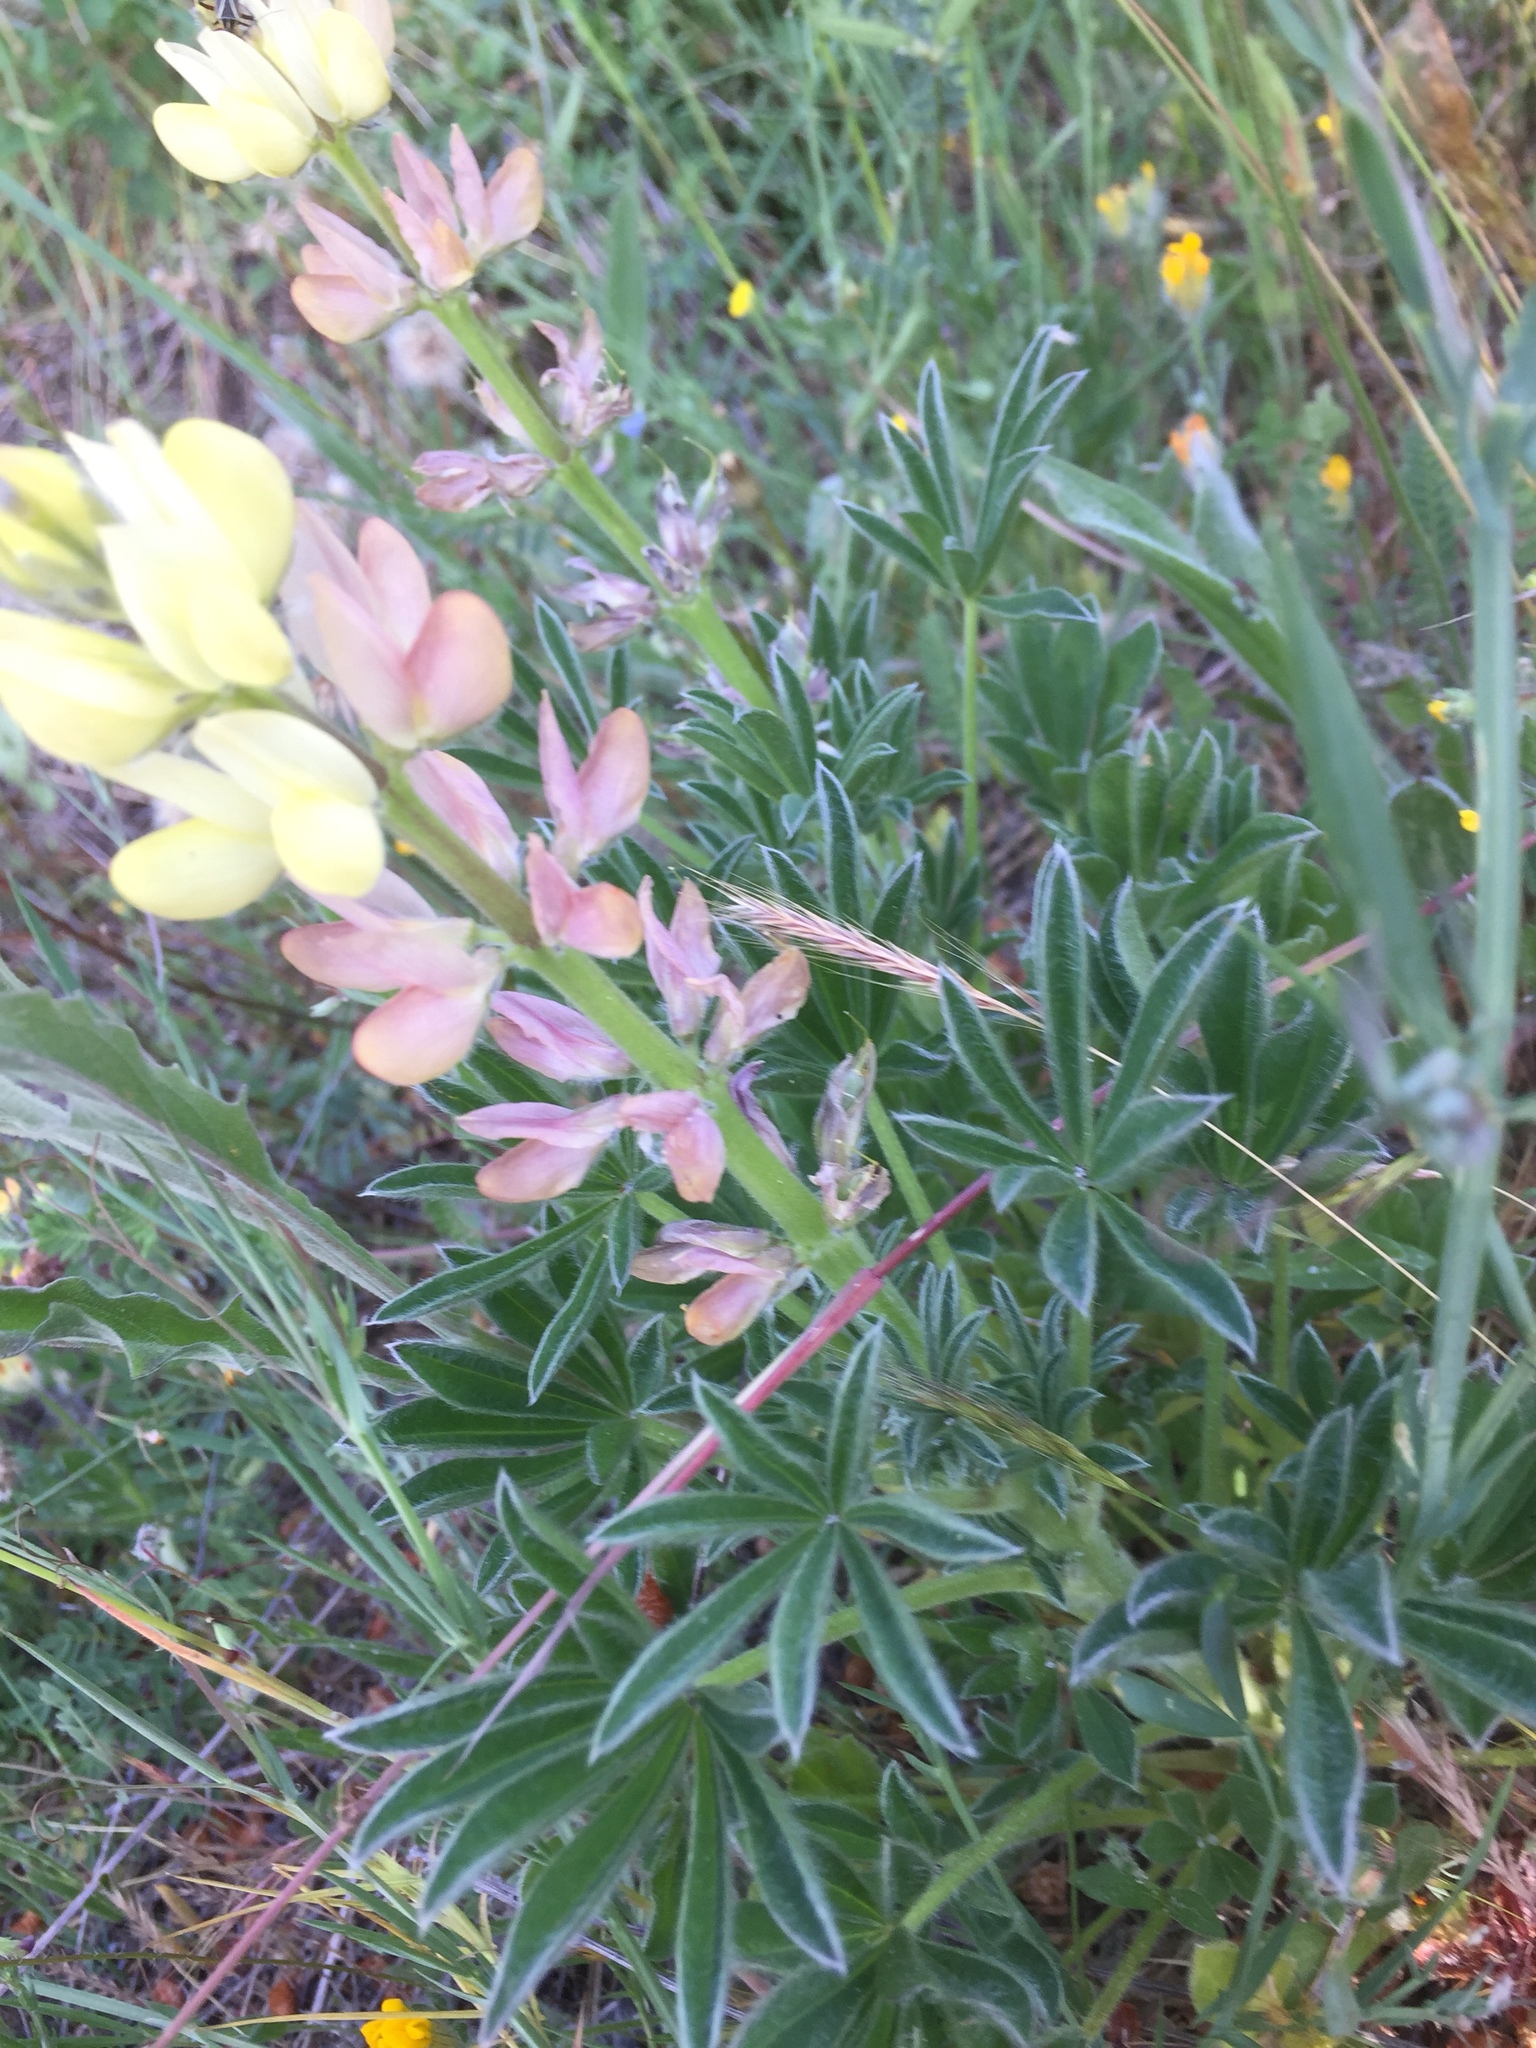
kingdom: Plantae
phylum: Tracheophyta
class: Magnoliopsida
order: Fabales
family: Fabaceae
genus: Lupinus
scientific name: Lupinus gredensis
